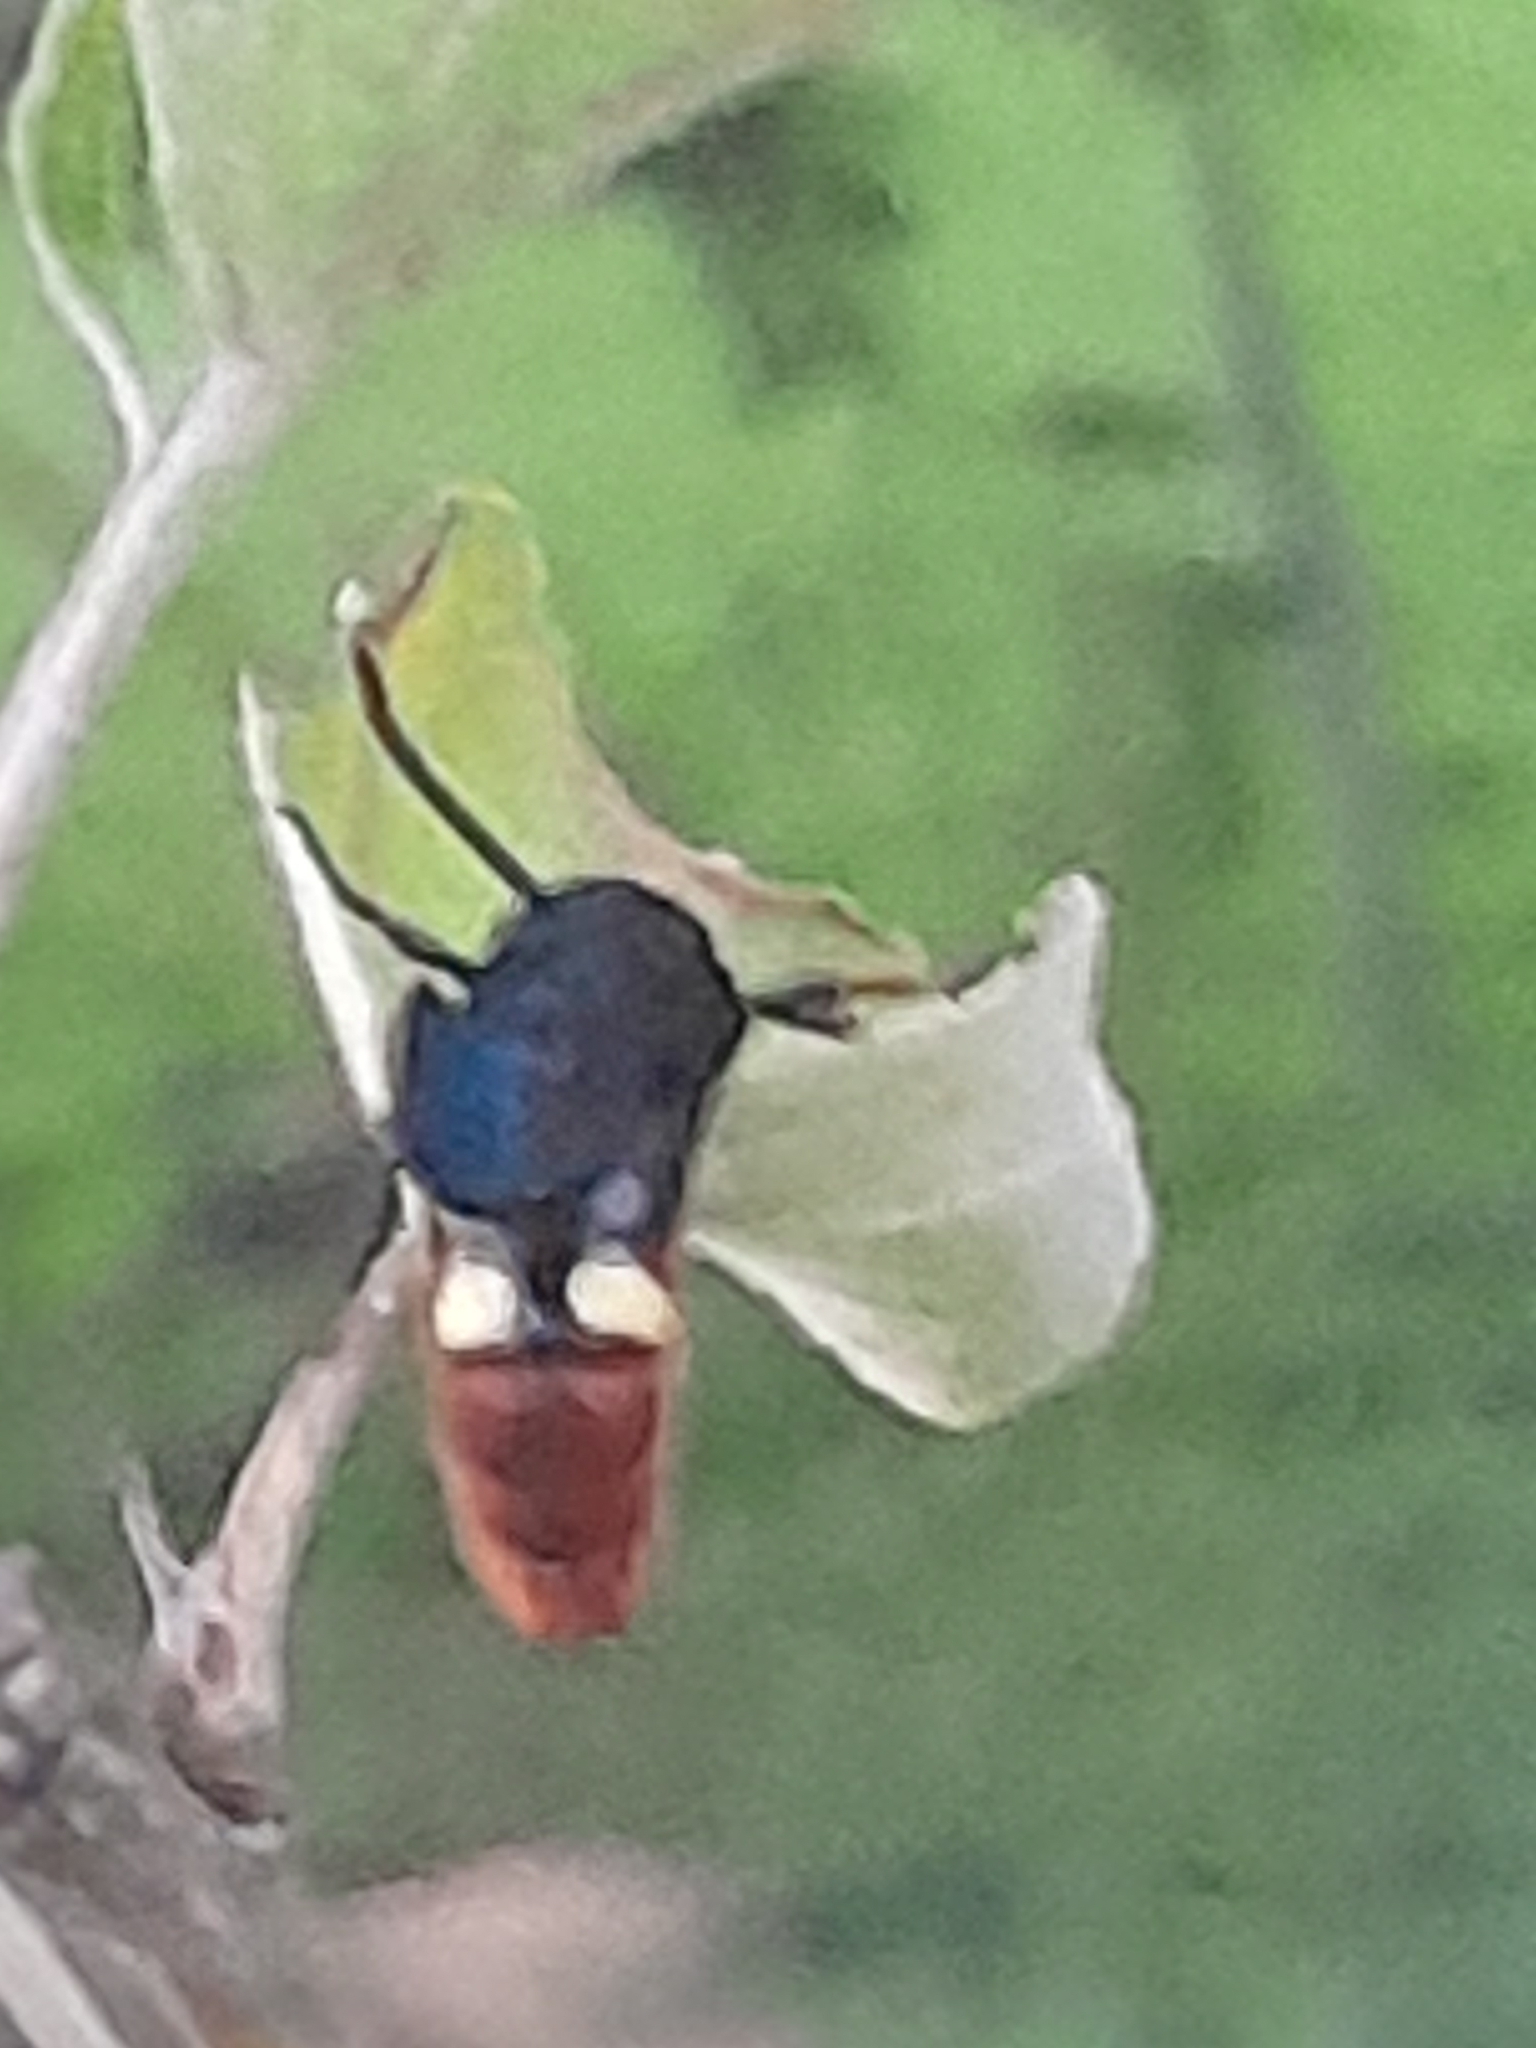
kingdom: Animalia
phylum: Arthropoda
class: Insecta
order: Hymenoptera
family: Scoliidae
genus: Scolia
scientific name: Scolia dubia
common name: Blue-winged scoliid wasp
